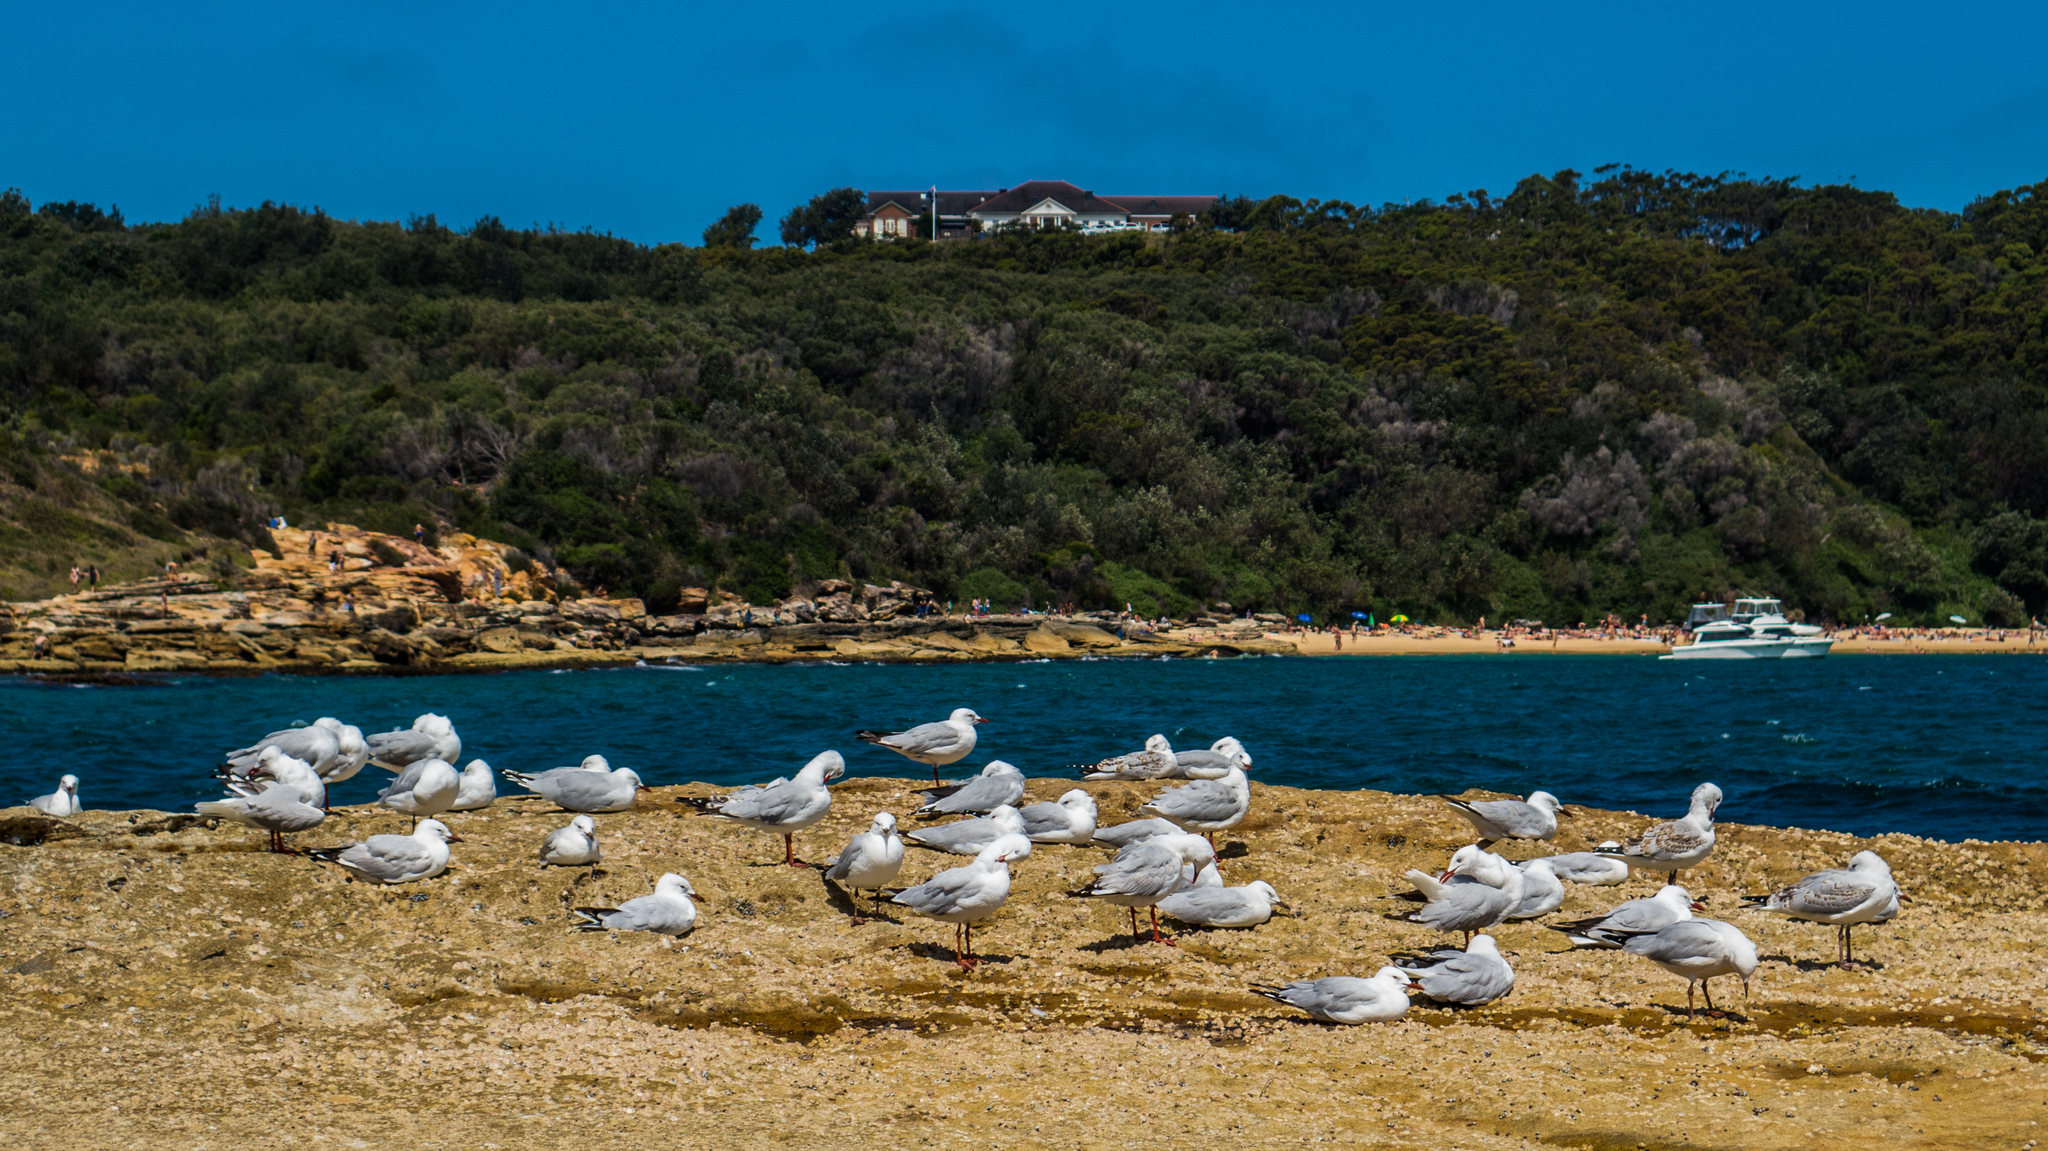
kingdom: Animalia
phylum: Chordata
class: Aves
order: Charadriiformes
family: Laridae
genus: Chroicocephalus
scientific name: Chroicocephalus novaehollandiae
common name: Silver gull
